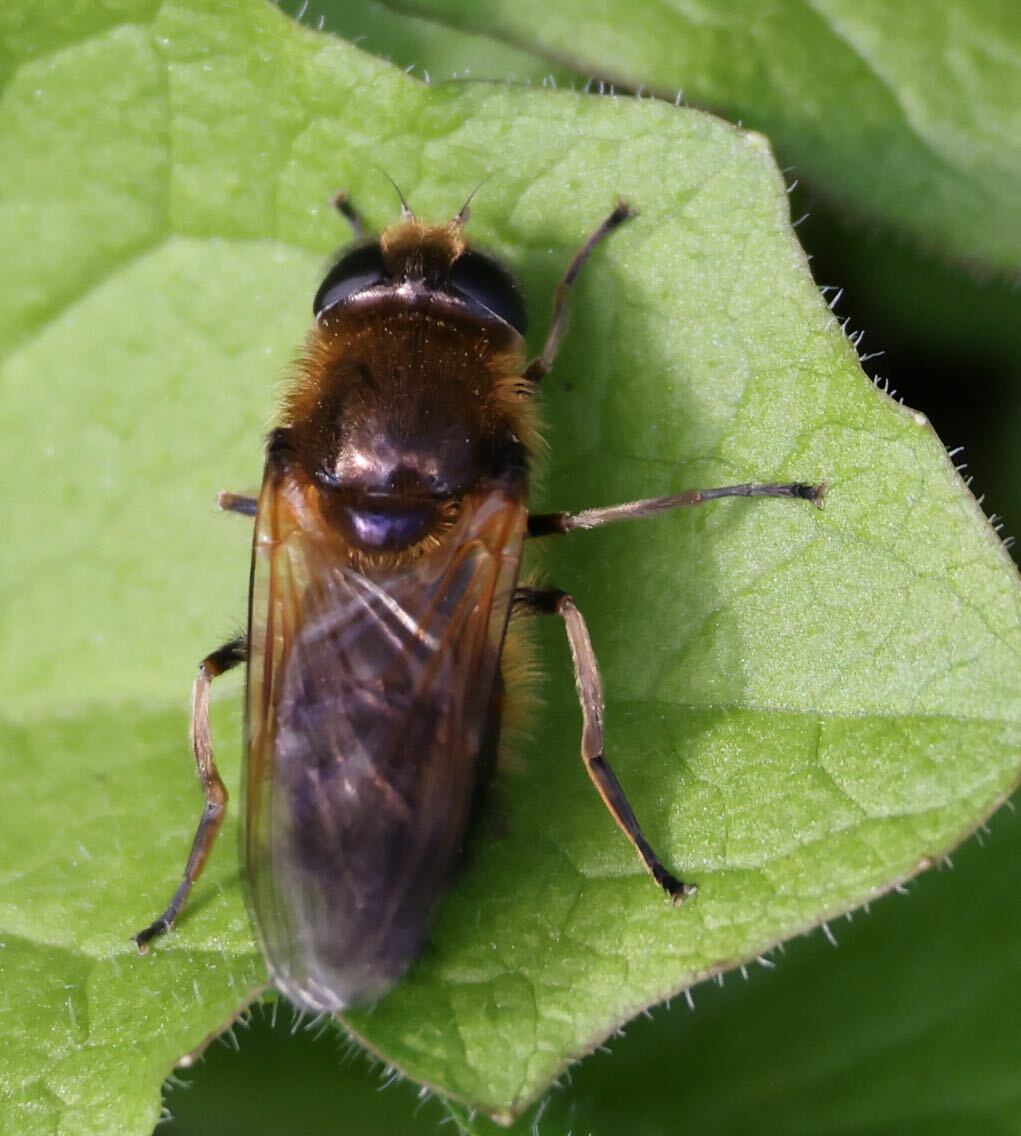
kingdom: Animalia
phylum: Arthropoda
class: Insecta
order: Diptera
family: Syrphidae
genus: Cheilosia
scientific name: Cheilosia corydon
